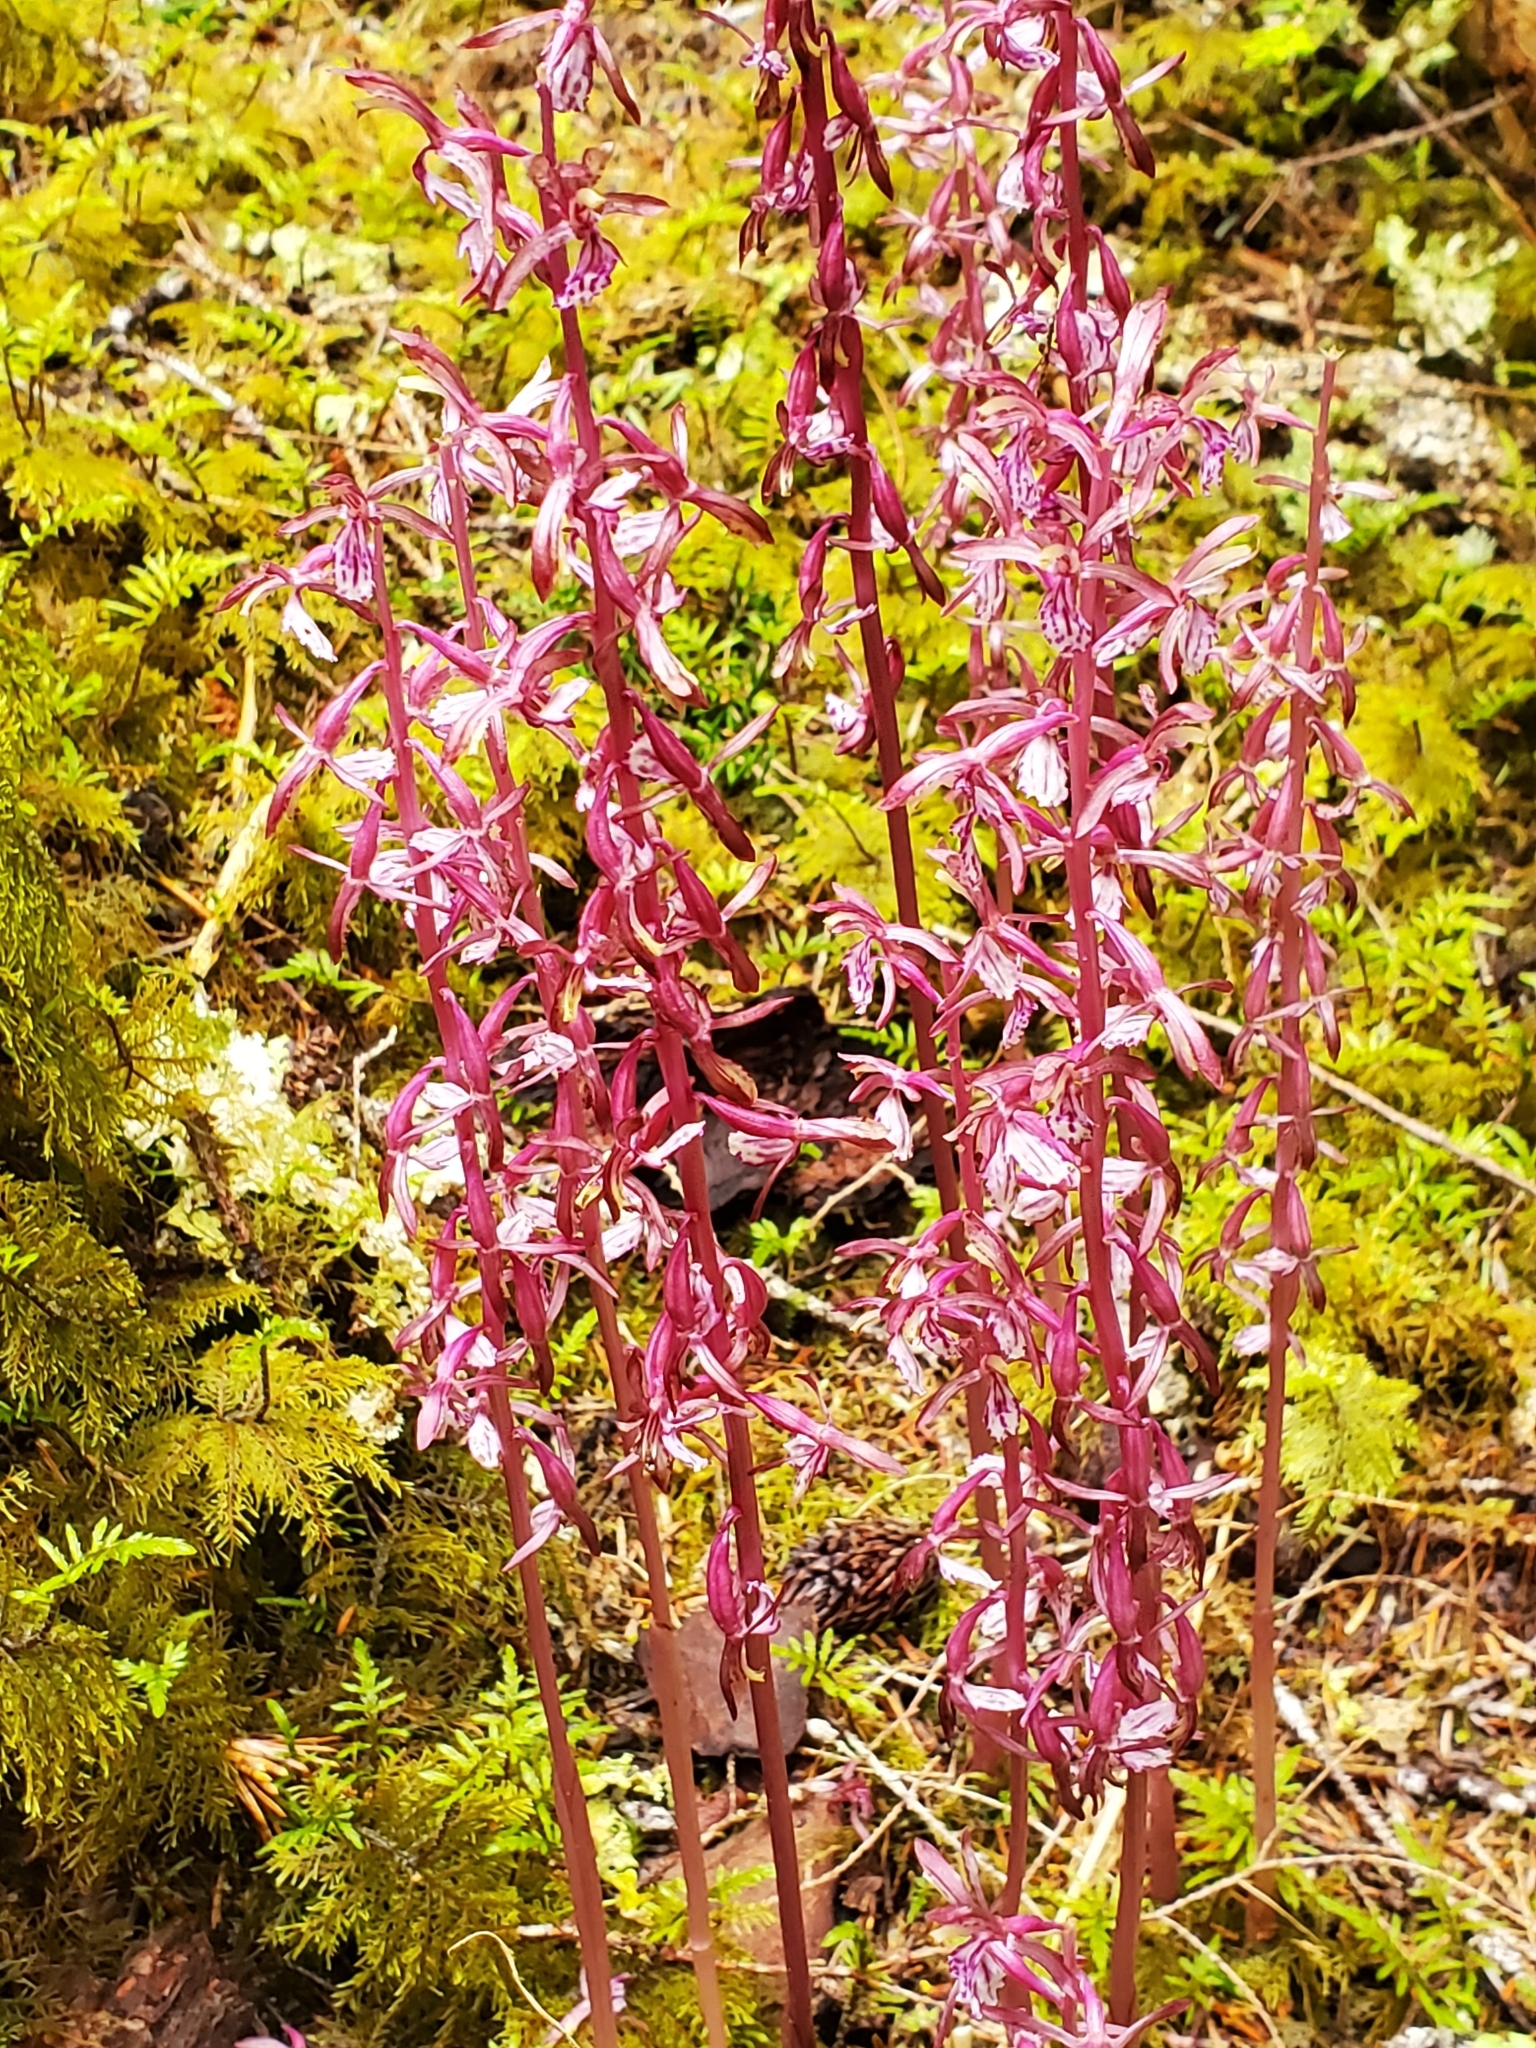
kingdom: Plantae
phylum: Tracheophyta
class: Liliopsida
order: Asparagales
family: Orchidaceae
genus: Corallorhiza
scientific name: Corallorhiza mertensiana
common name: Pacific coralroot
